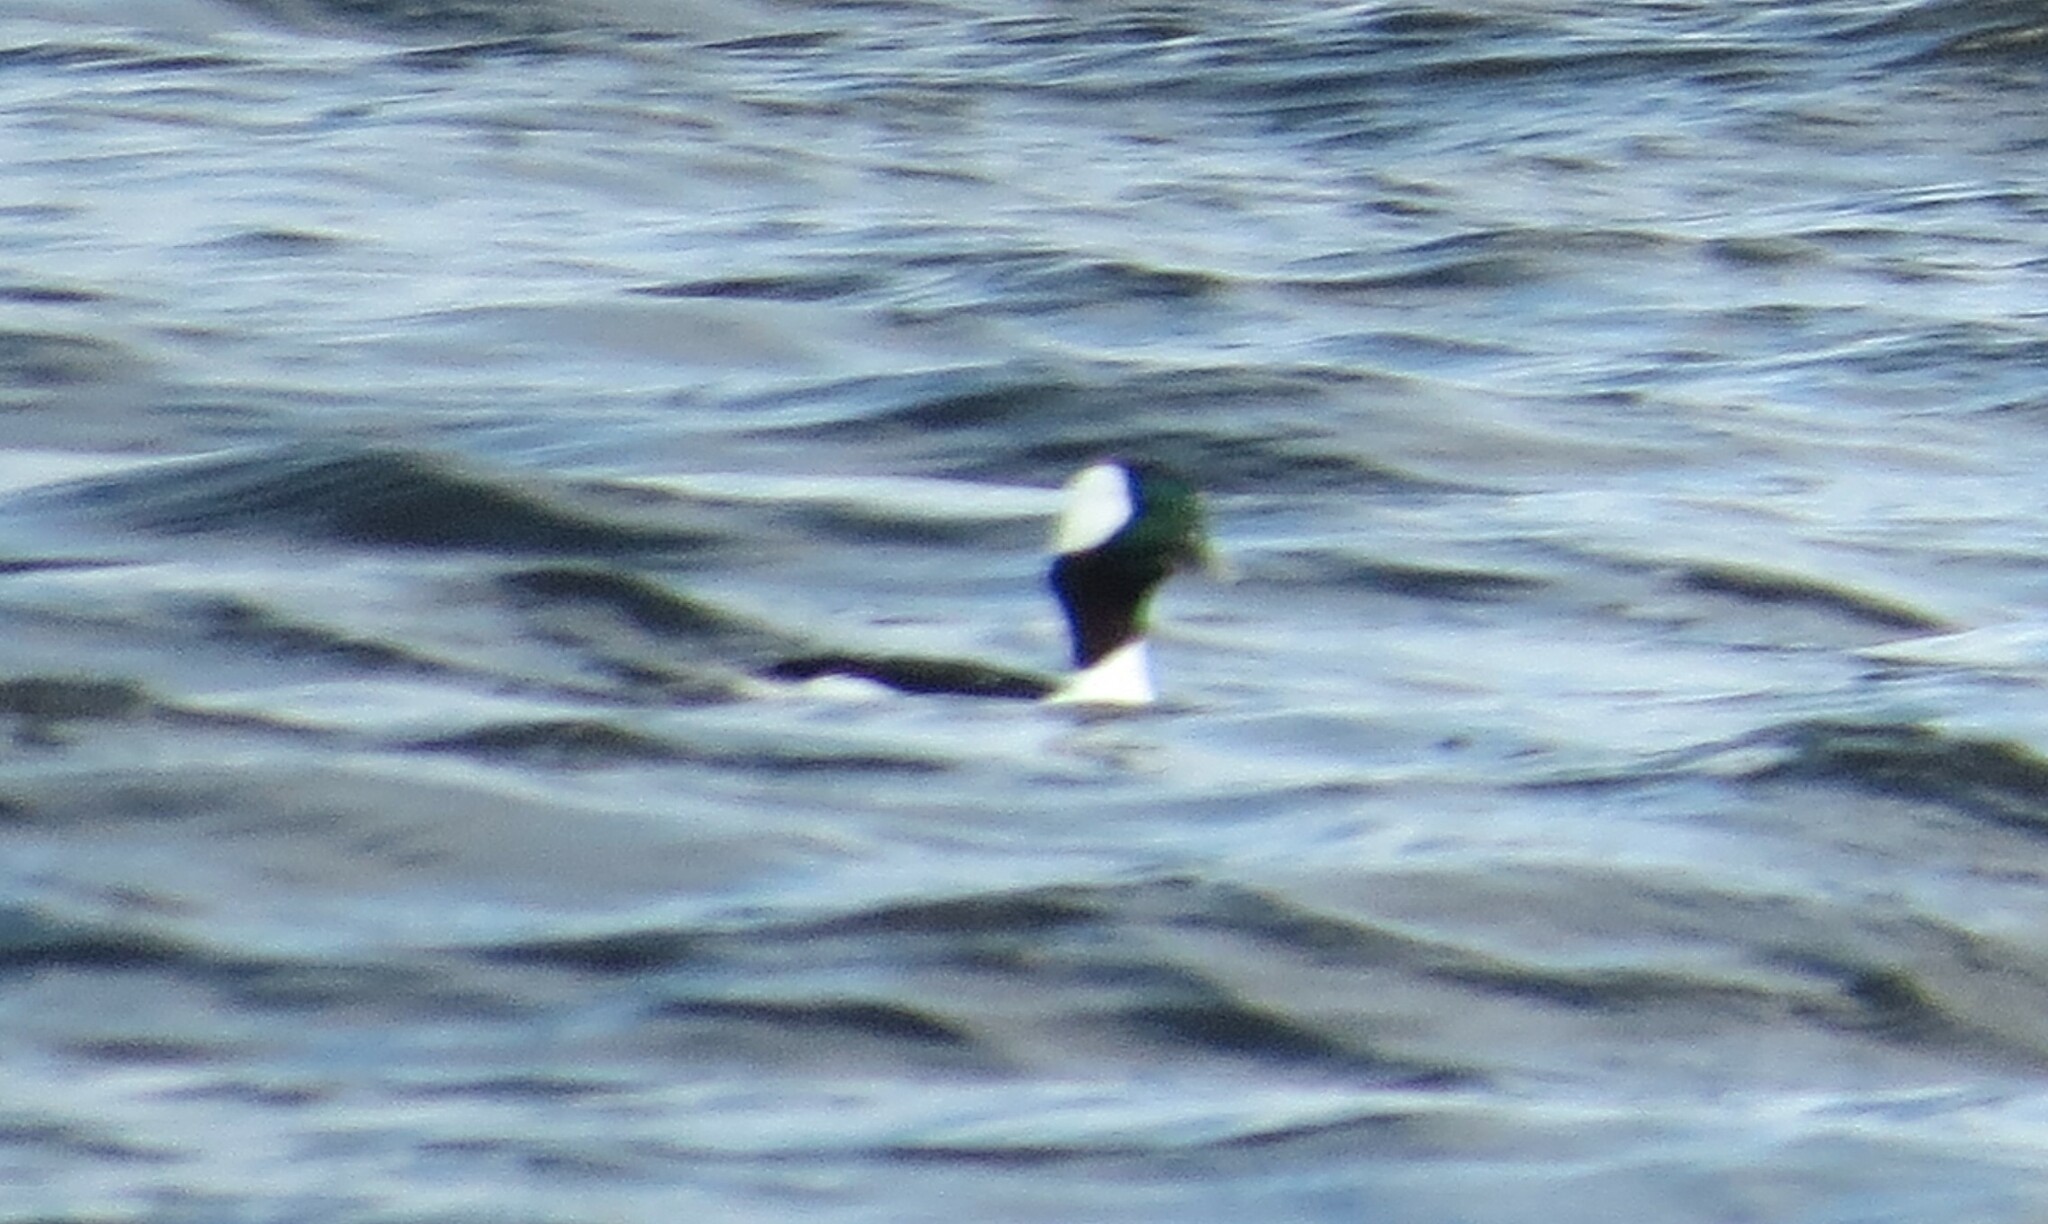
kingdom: Animalia
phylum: Chordata
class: Aves
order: Anseriformes
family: Anatidae
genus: Bucephala
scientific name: Bucephala albeola
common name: Bufflehead
